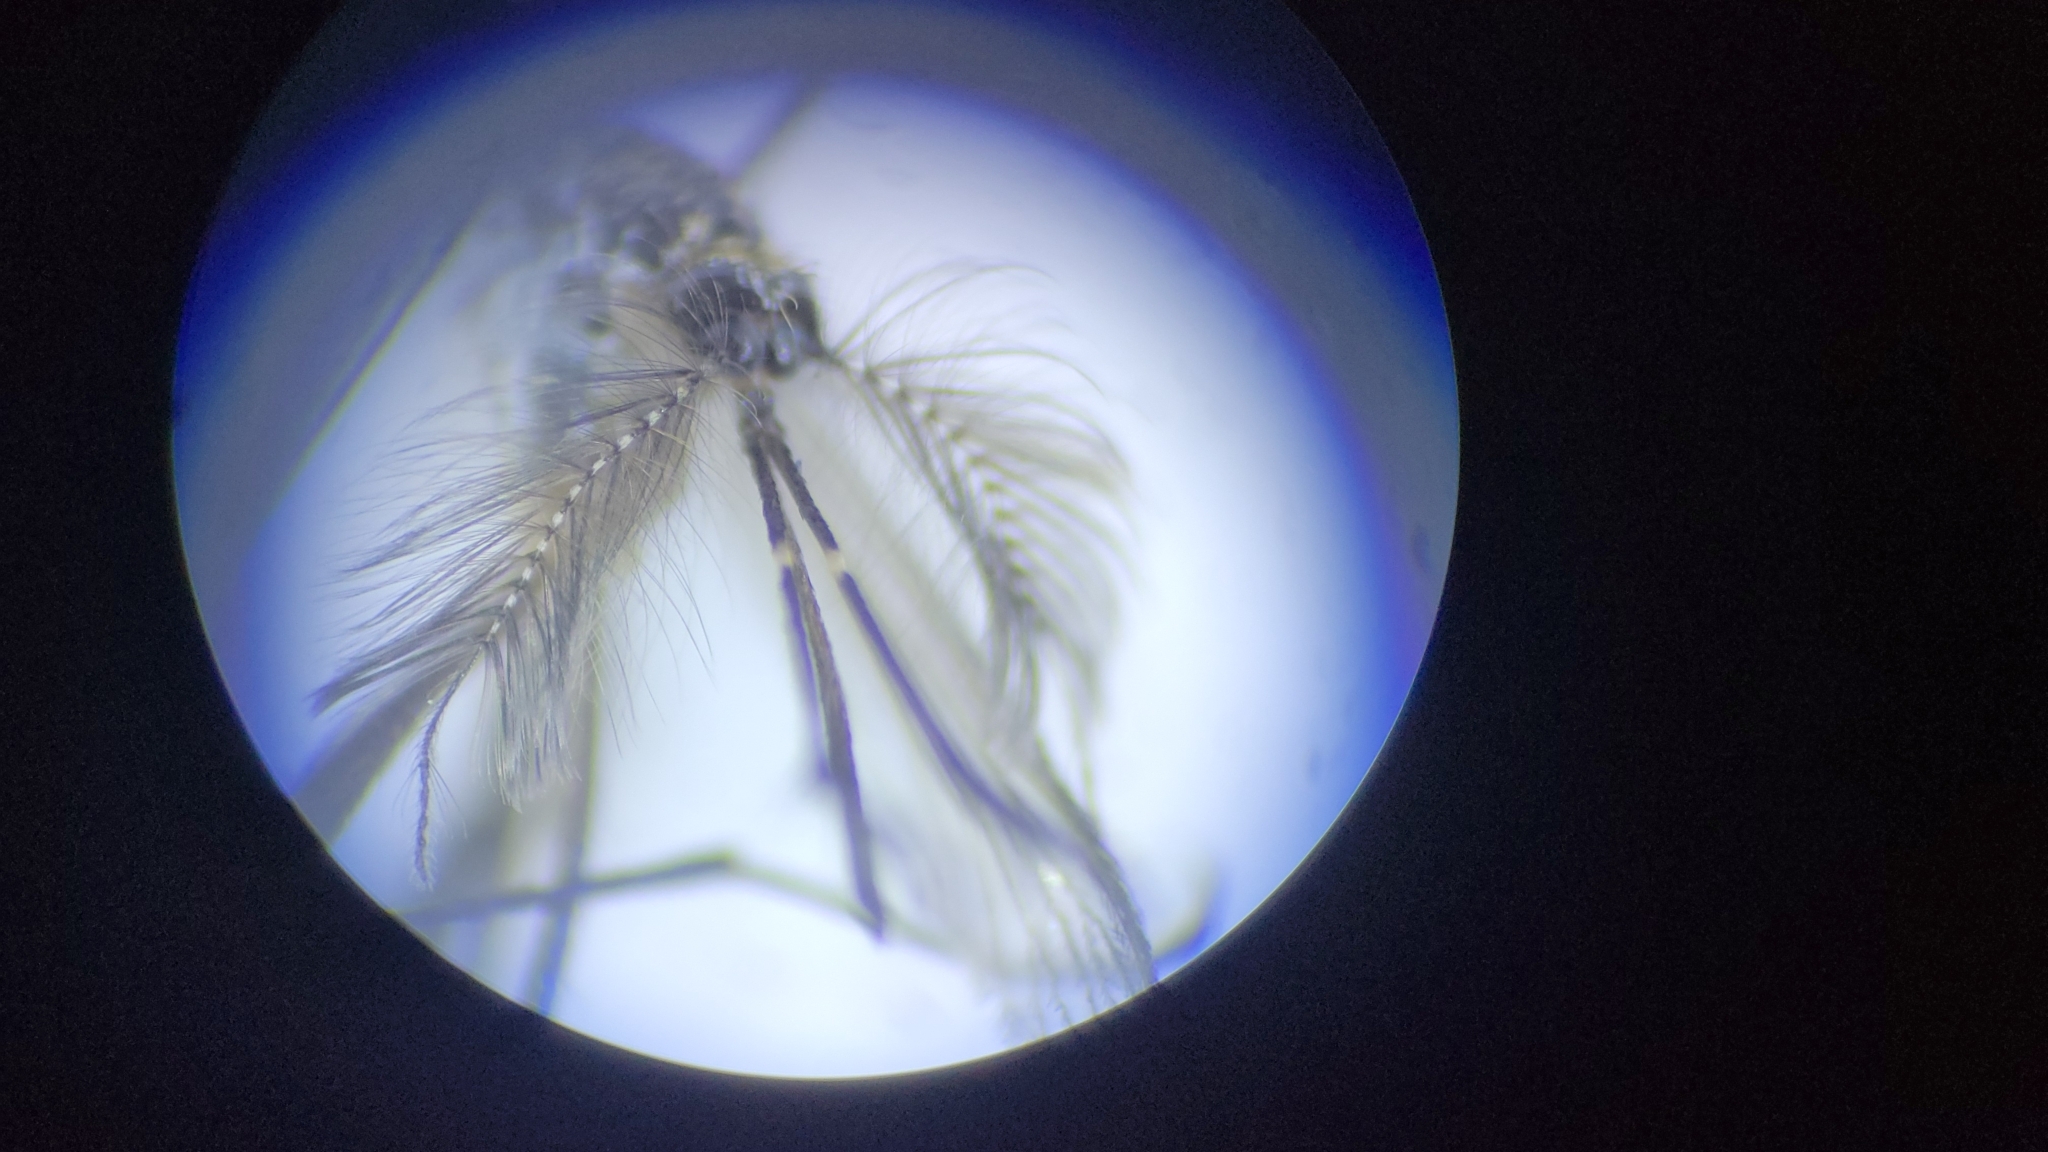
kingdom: Animalia
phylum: Arthropoda
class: Insecta
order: Diptera
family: Culicidae
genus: Psorophora
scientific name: Psorophora ferox
